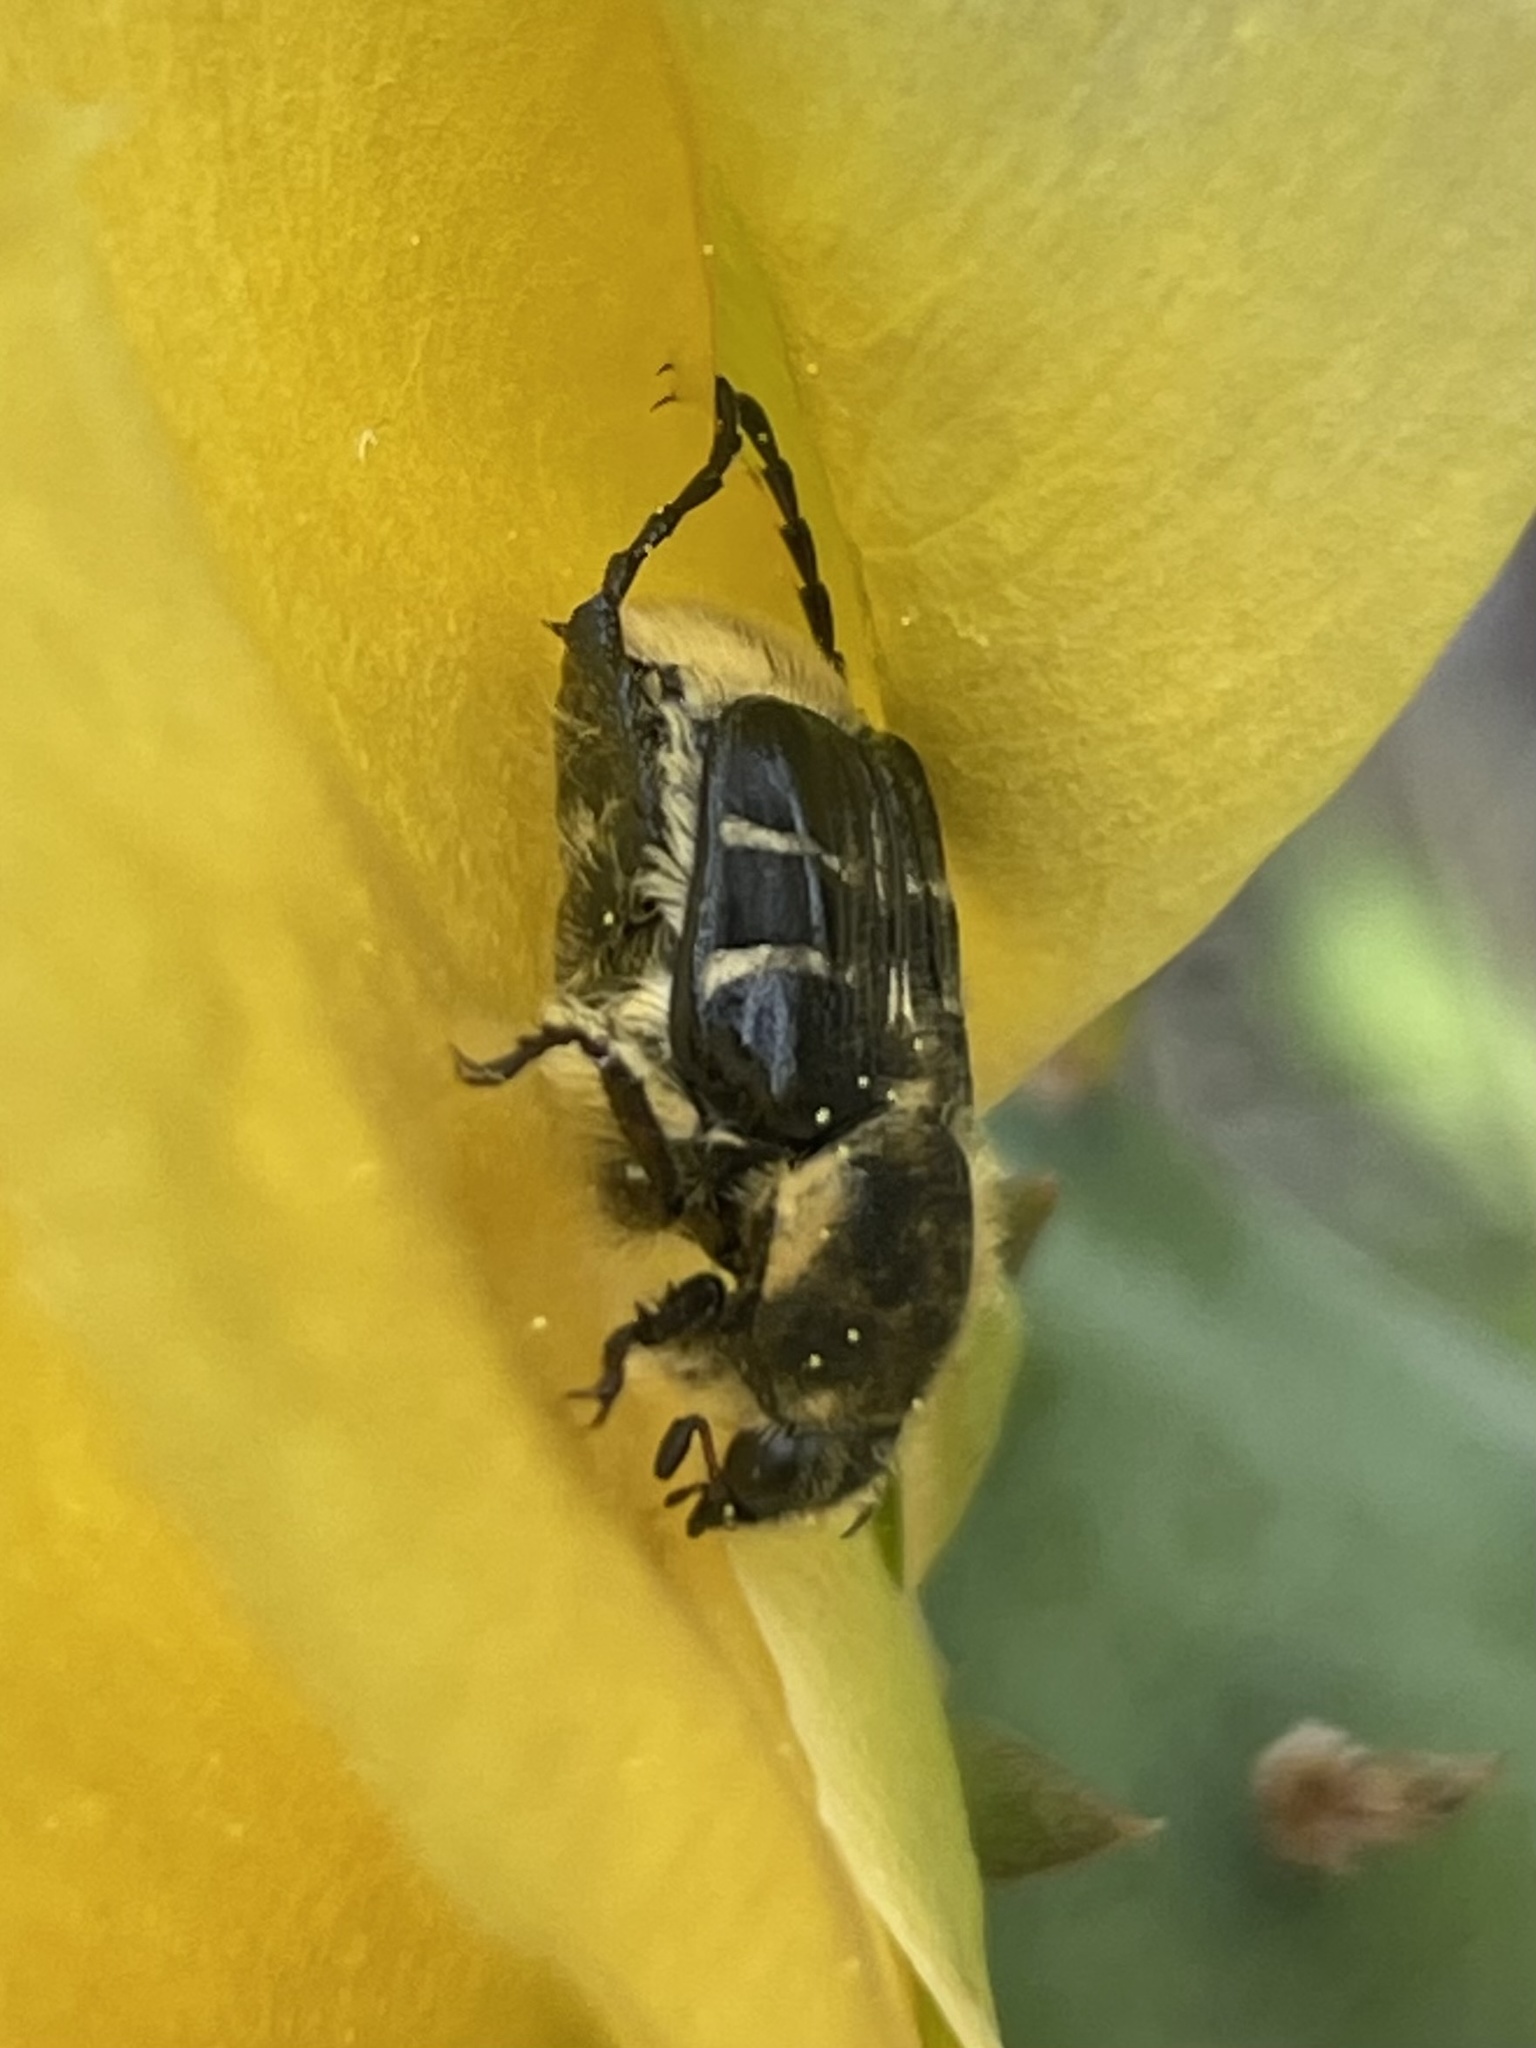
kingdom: Animalia
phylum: Arthropoda
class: Insecta
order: Coleoptera
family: Scarabaeidae
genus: Trichiotinus
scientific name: Trichiotinus texanus
